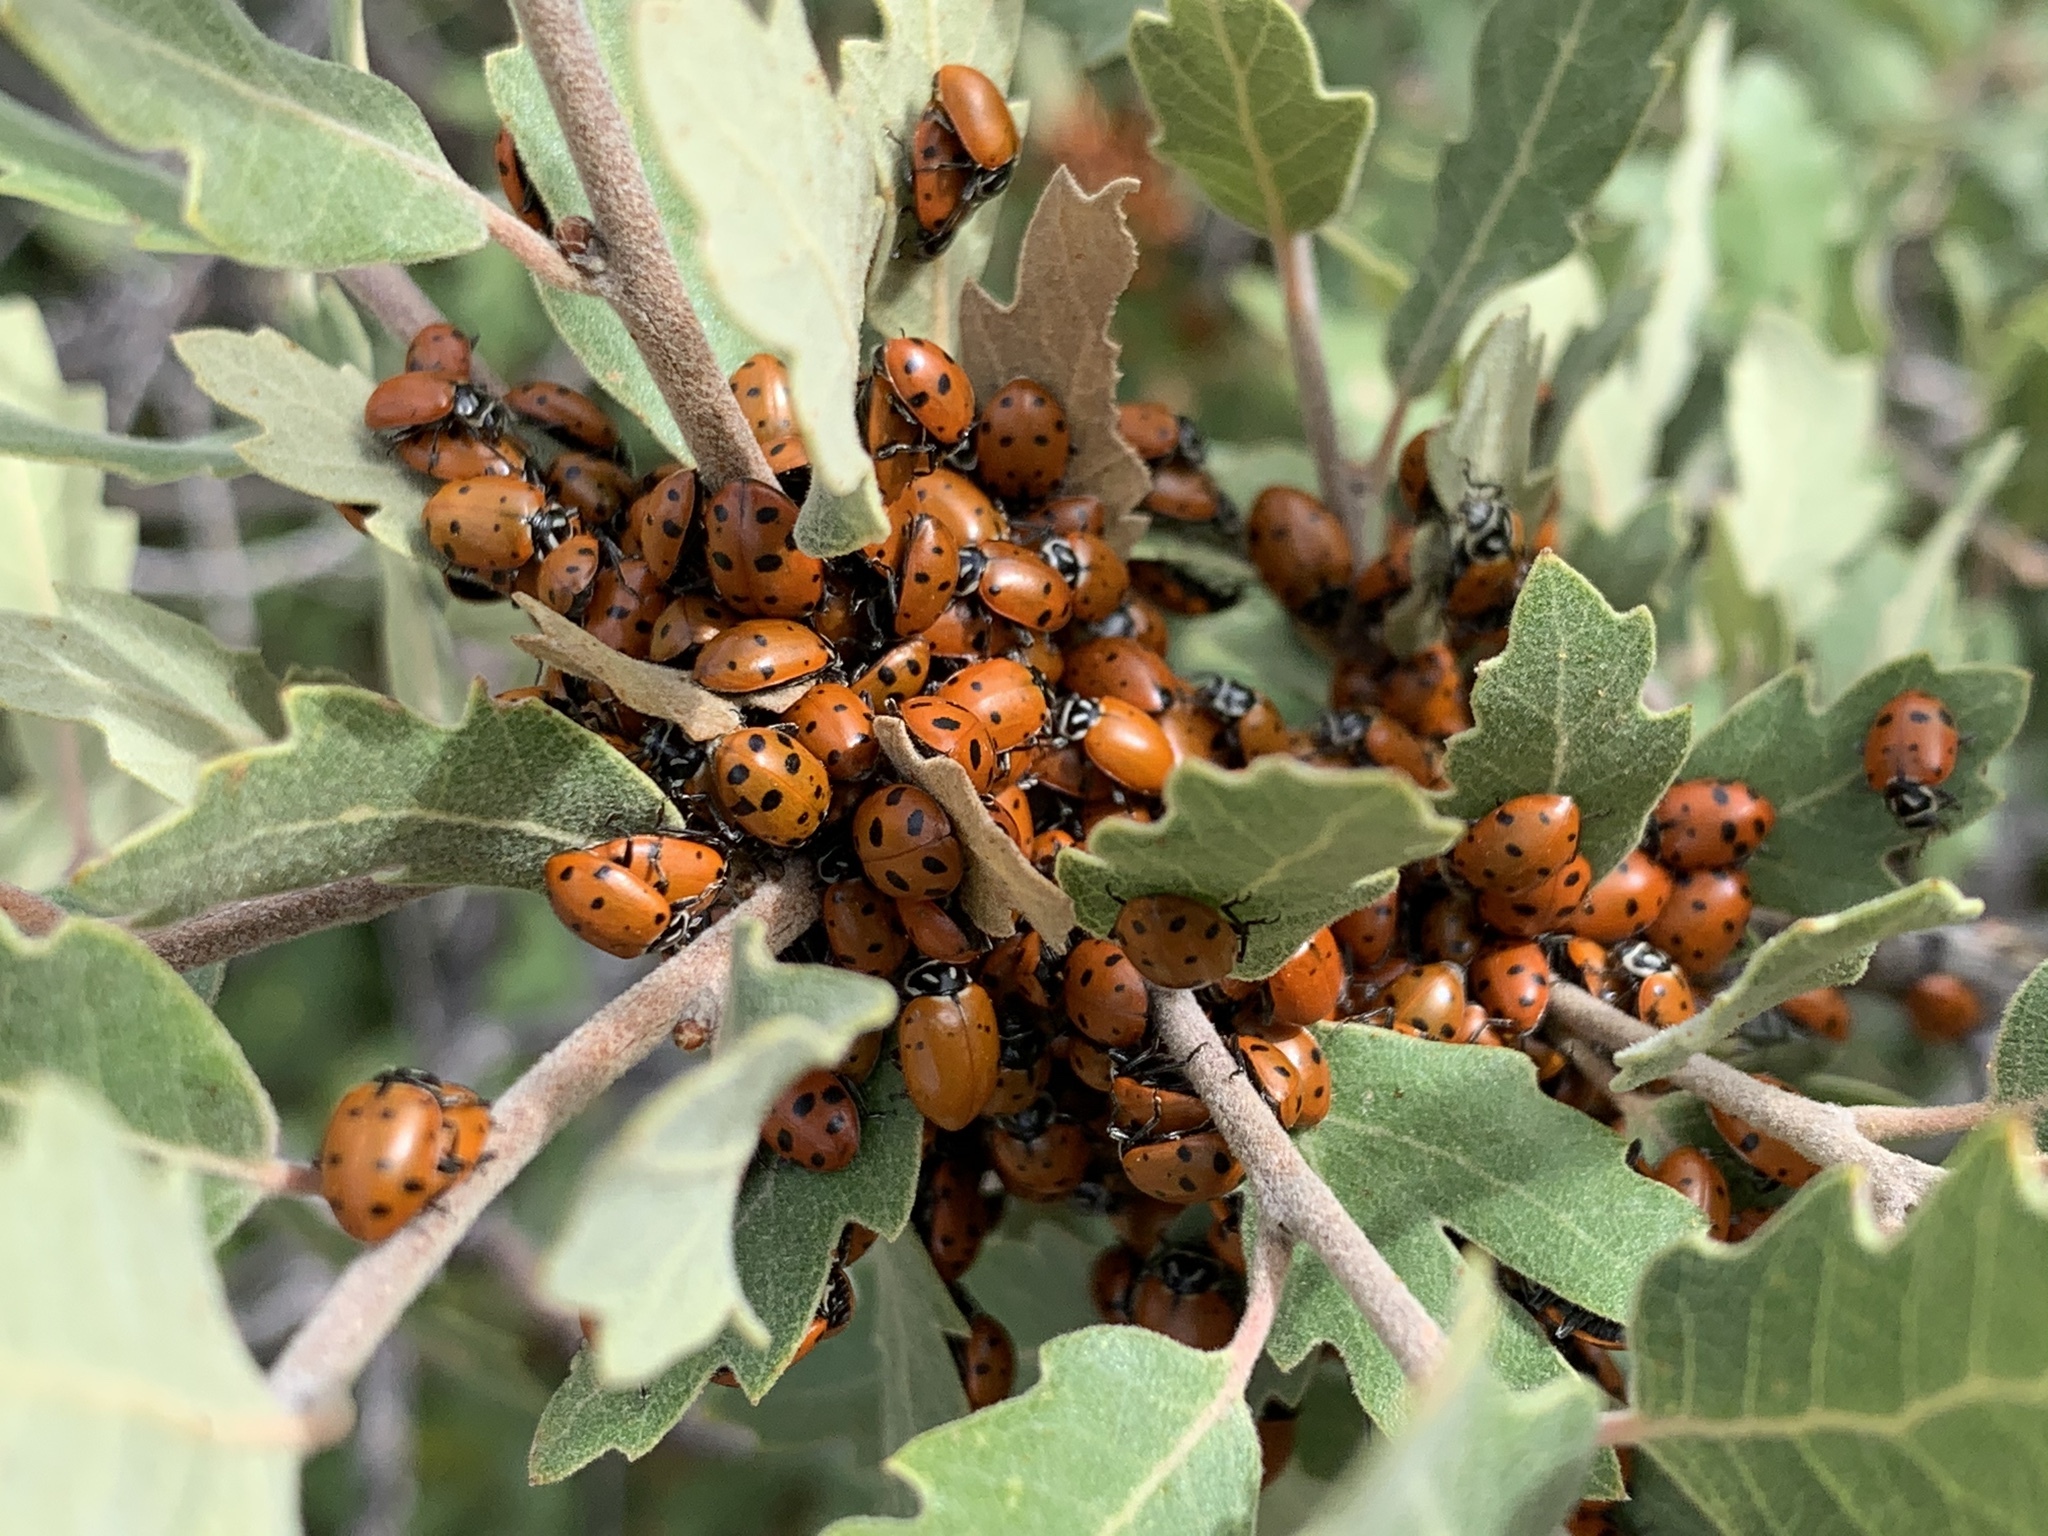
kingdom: Animalia
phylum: Arthropoda
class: Insecta
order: Coleoptera
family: Coccinellidae
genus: Hippodamia
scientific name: Hippodamia convergens
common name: Convergent lady beetle
